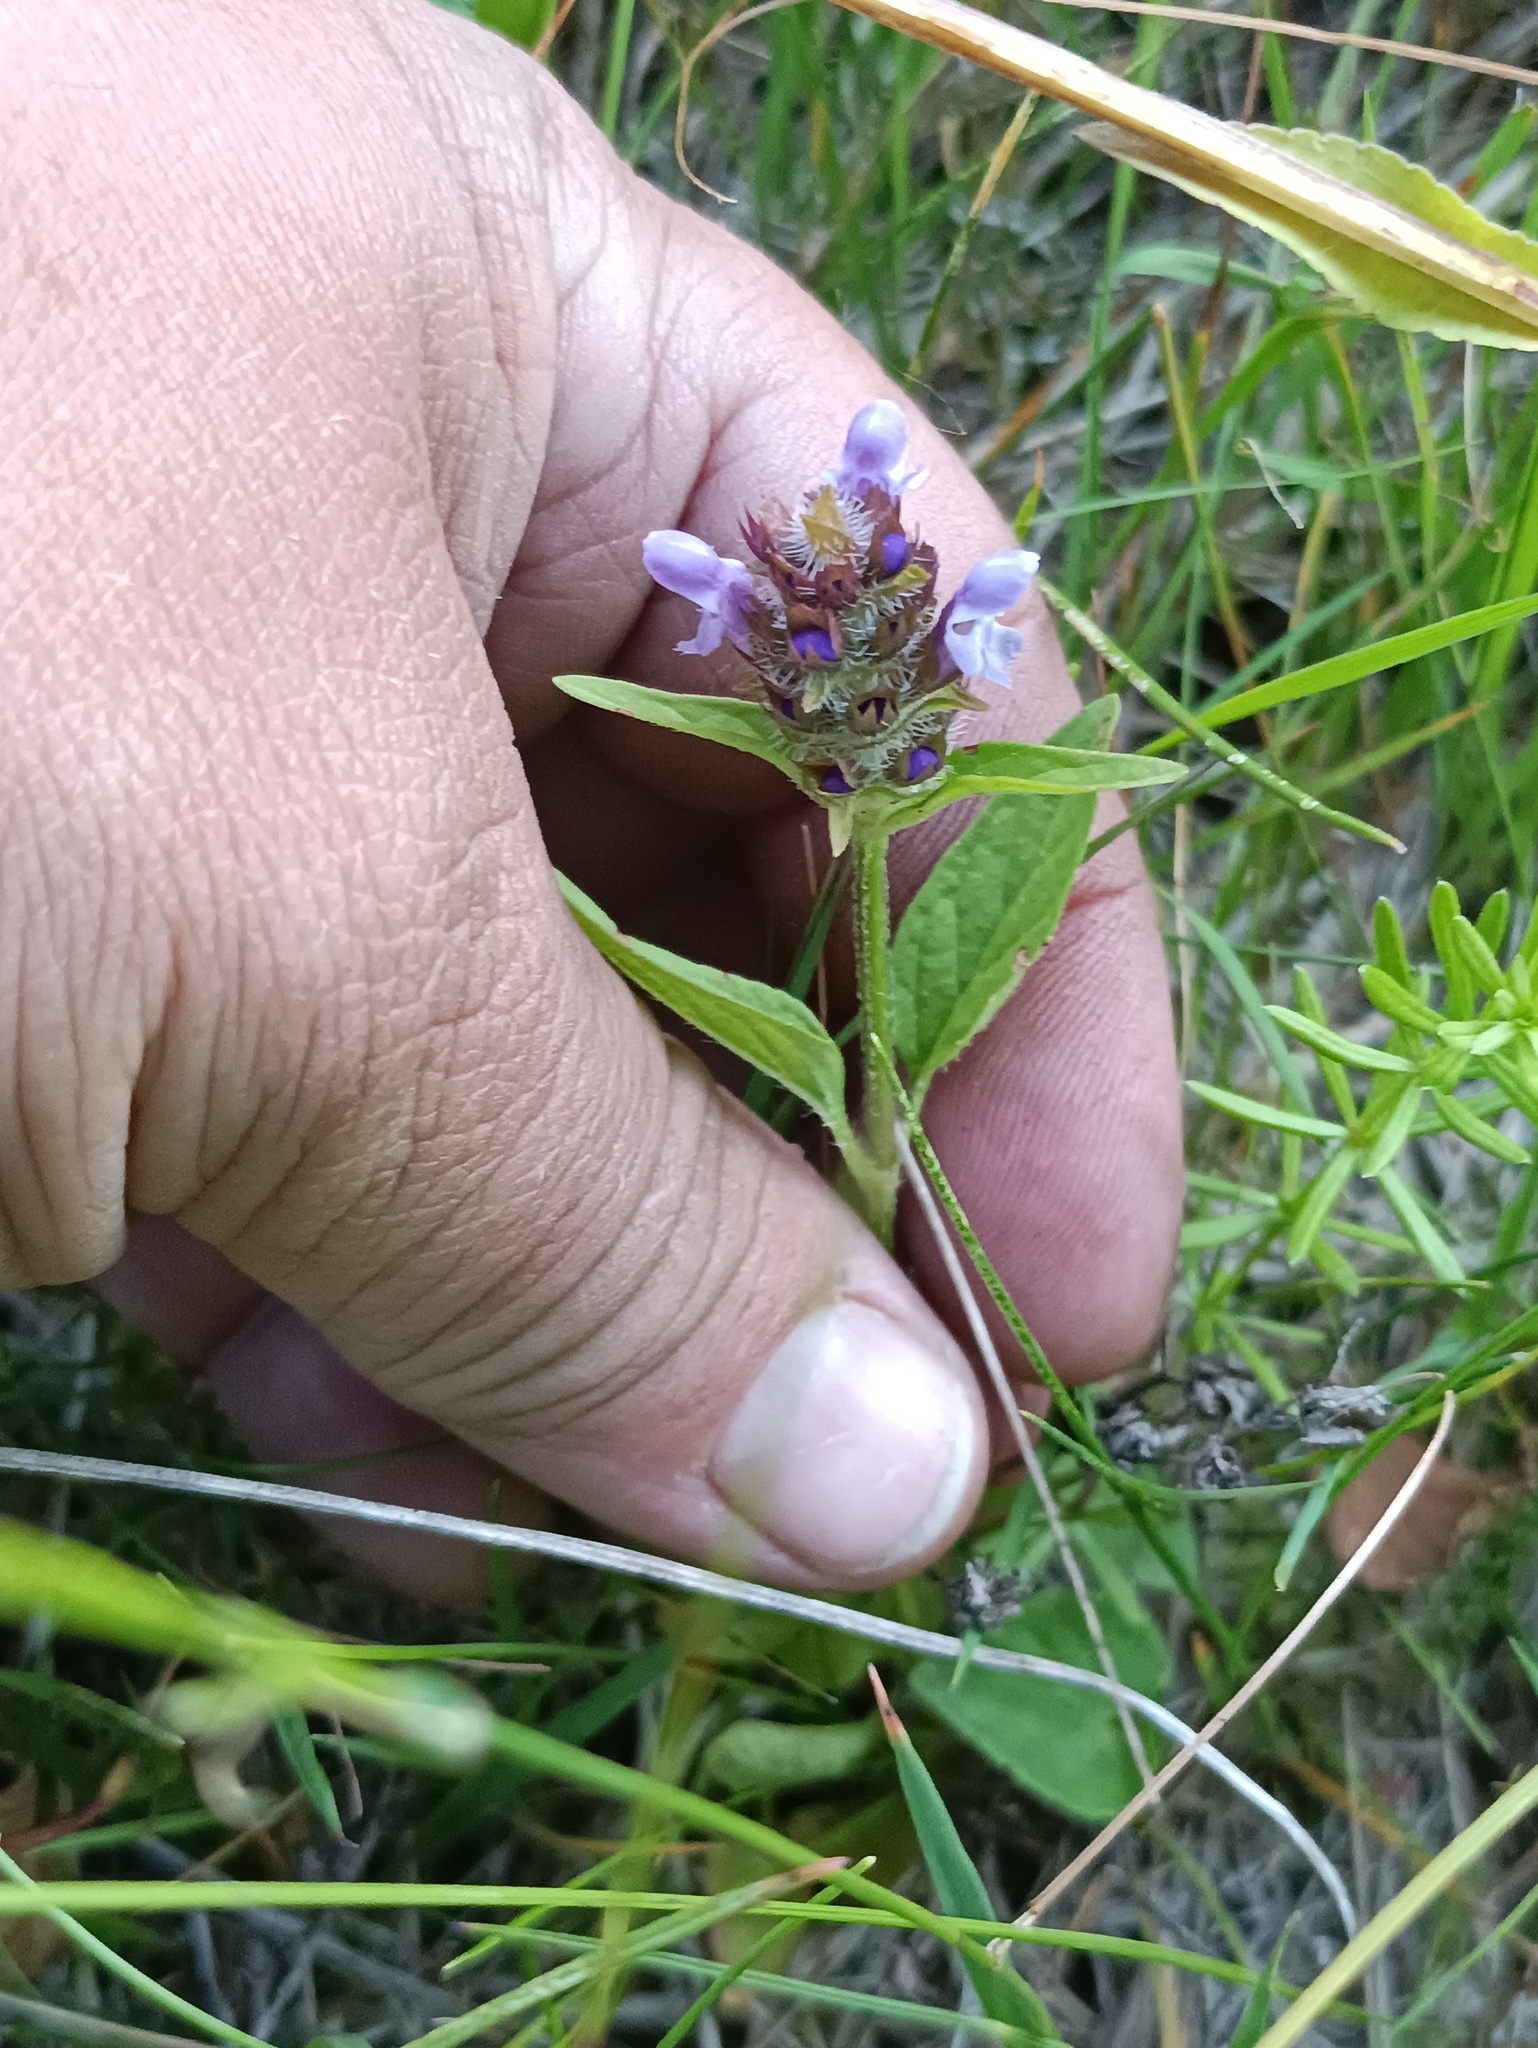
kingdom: Plantae
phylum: Tracheophyta
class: Magnoliopsida
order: Lamiales
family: Lamiaceae
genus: Prunella
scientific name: Prunella vulgaris
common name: Heal-all
